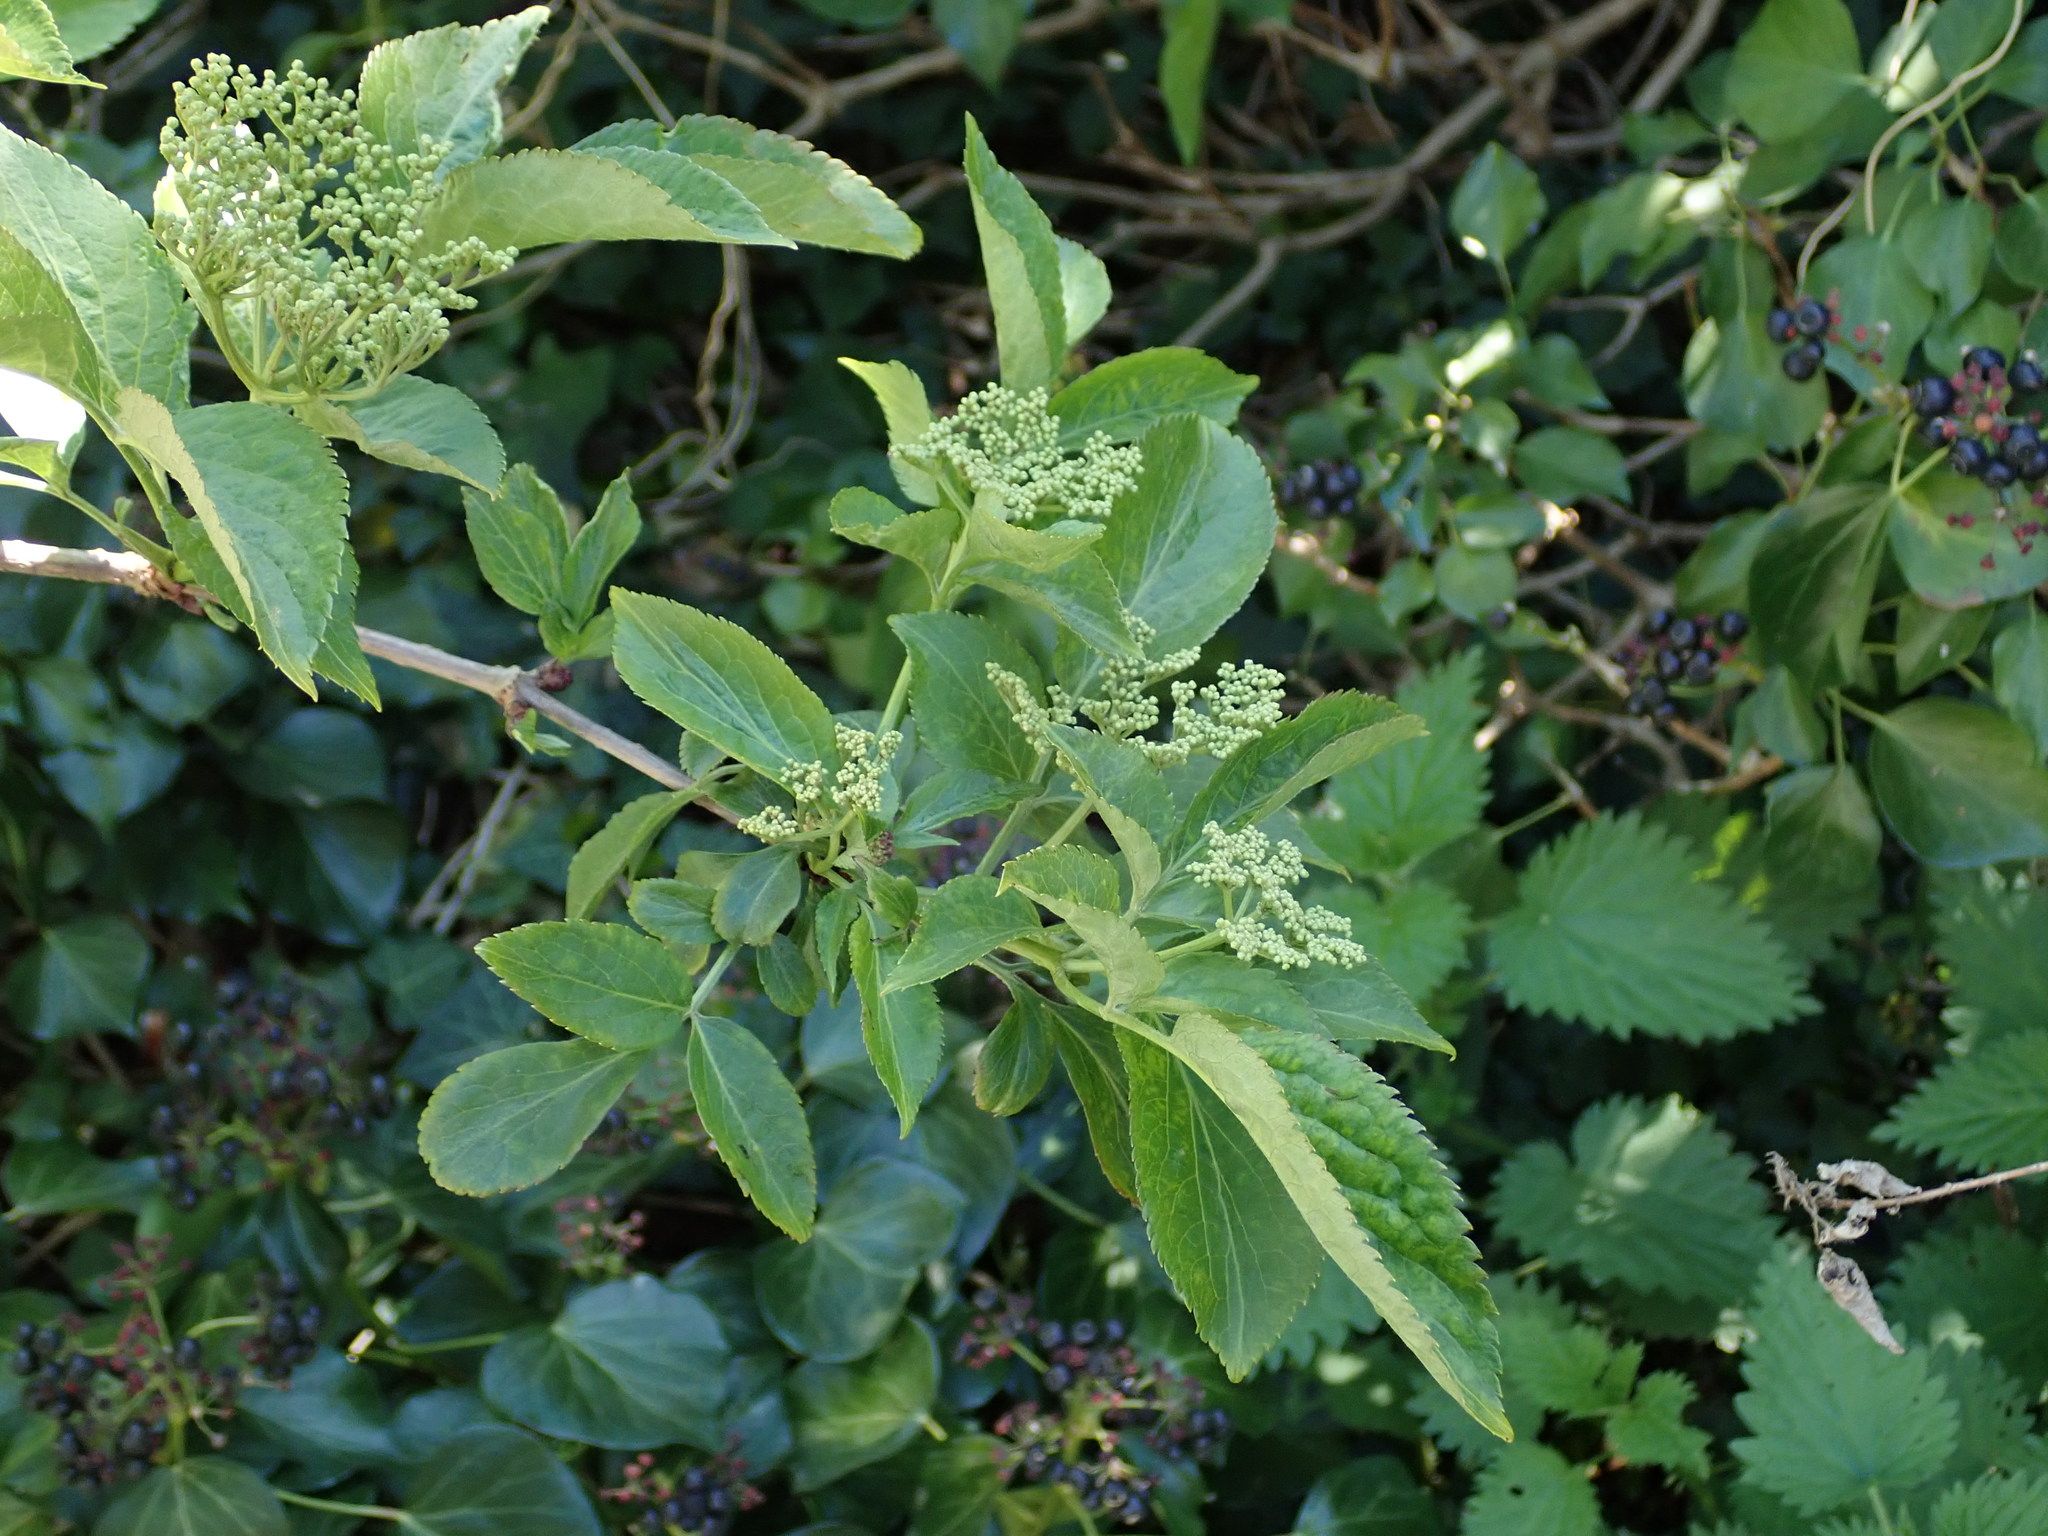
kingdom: Plantae
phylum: Tracheophyta
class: Magnoliopsida
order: Dipsacales
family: Viburnaceae
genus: Sambucus
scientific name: Sambucus nigra
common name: Elder
